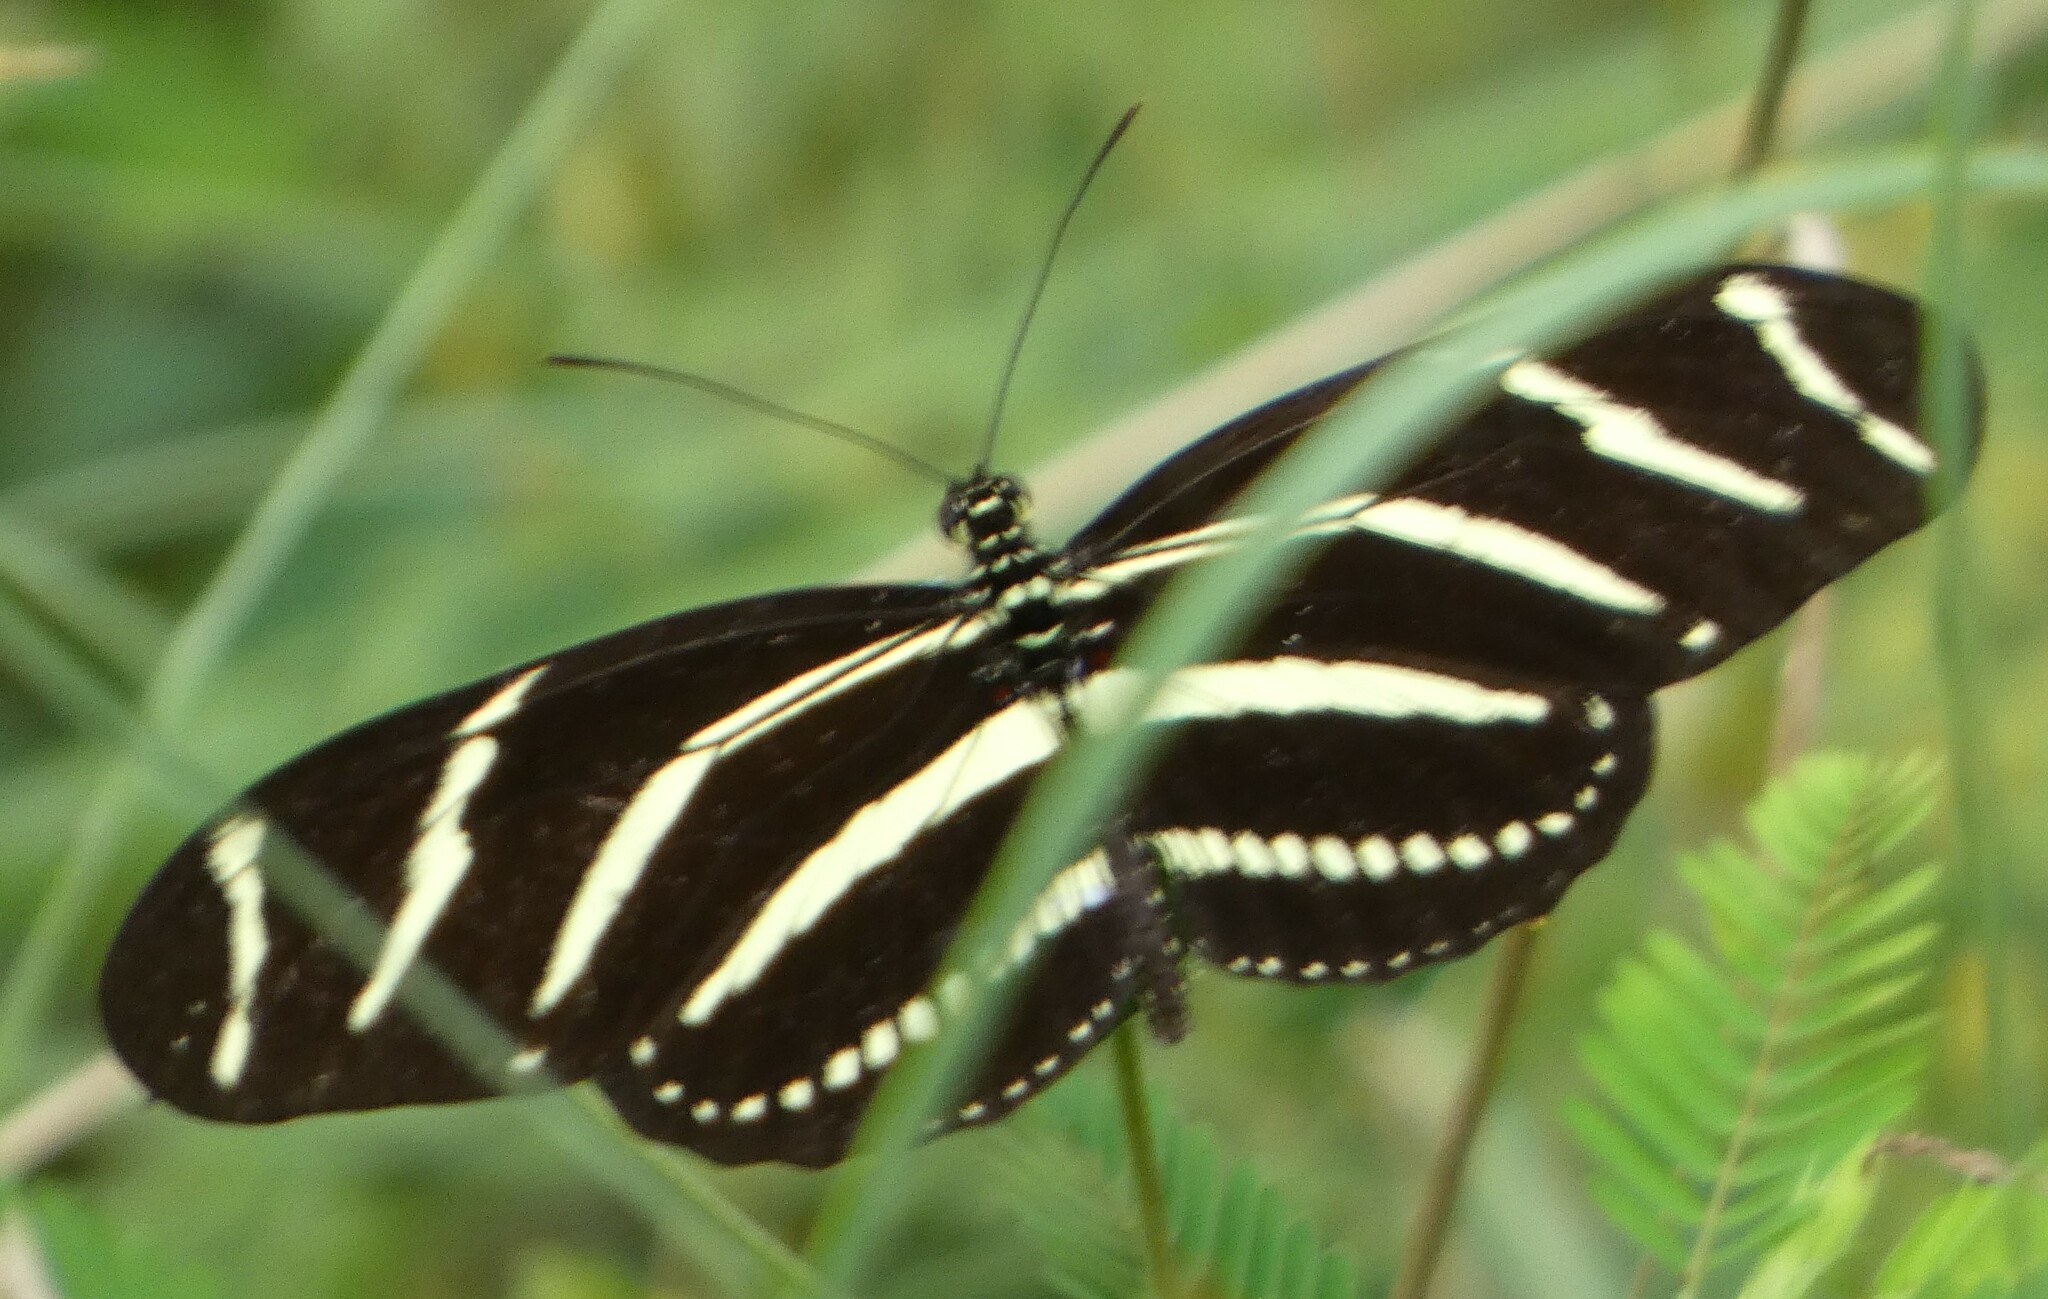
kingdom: Animalia
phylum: Arthropoda
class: Insecta
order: Lepidoptera
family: Nymphalidae
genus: Heliconius
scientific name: Heliconius charithonia
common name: Zebra long wing
